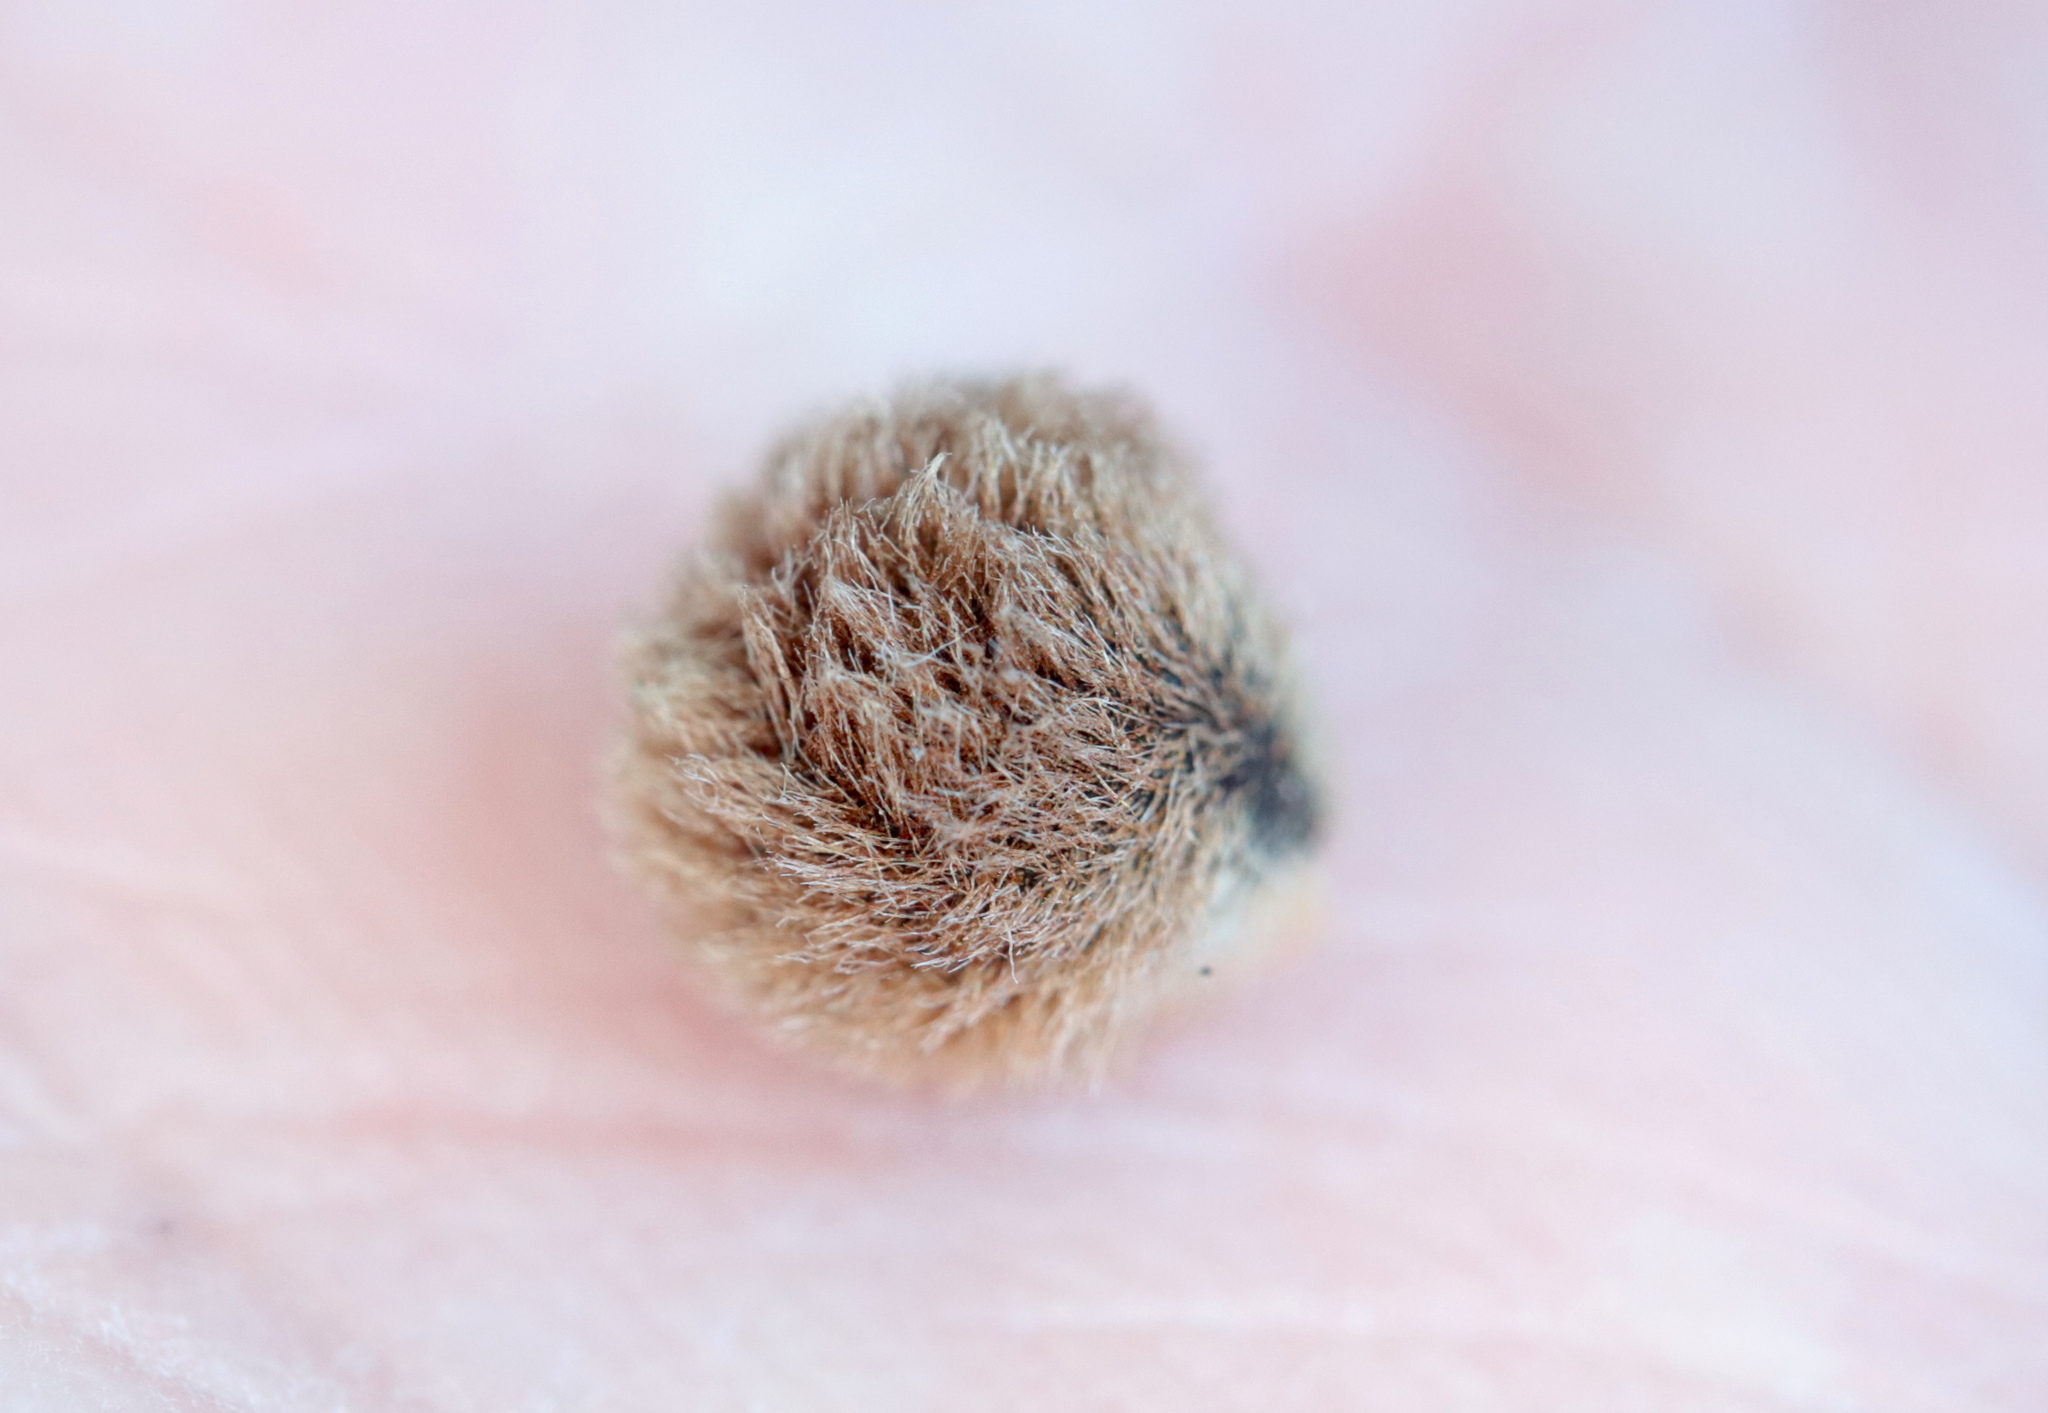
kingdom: Animalia
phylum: Arthropoda
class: Insecta
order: Hymenoptera
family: Cynipidae
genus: Callirhytis
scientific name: Callirhytis
